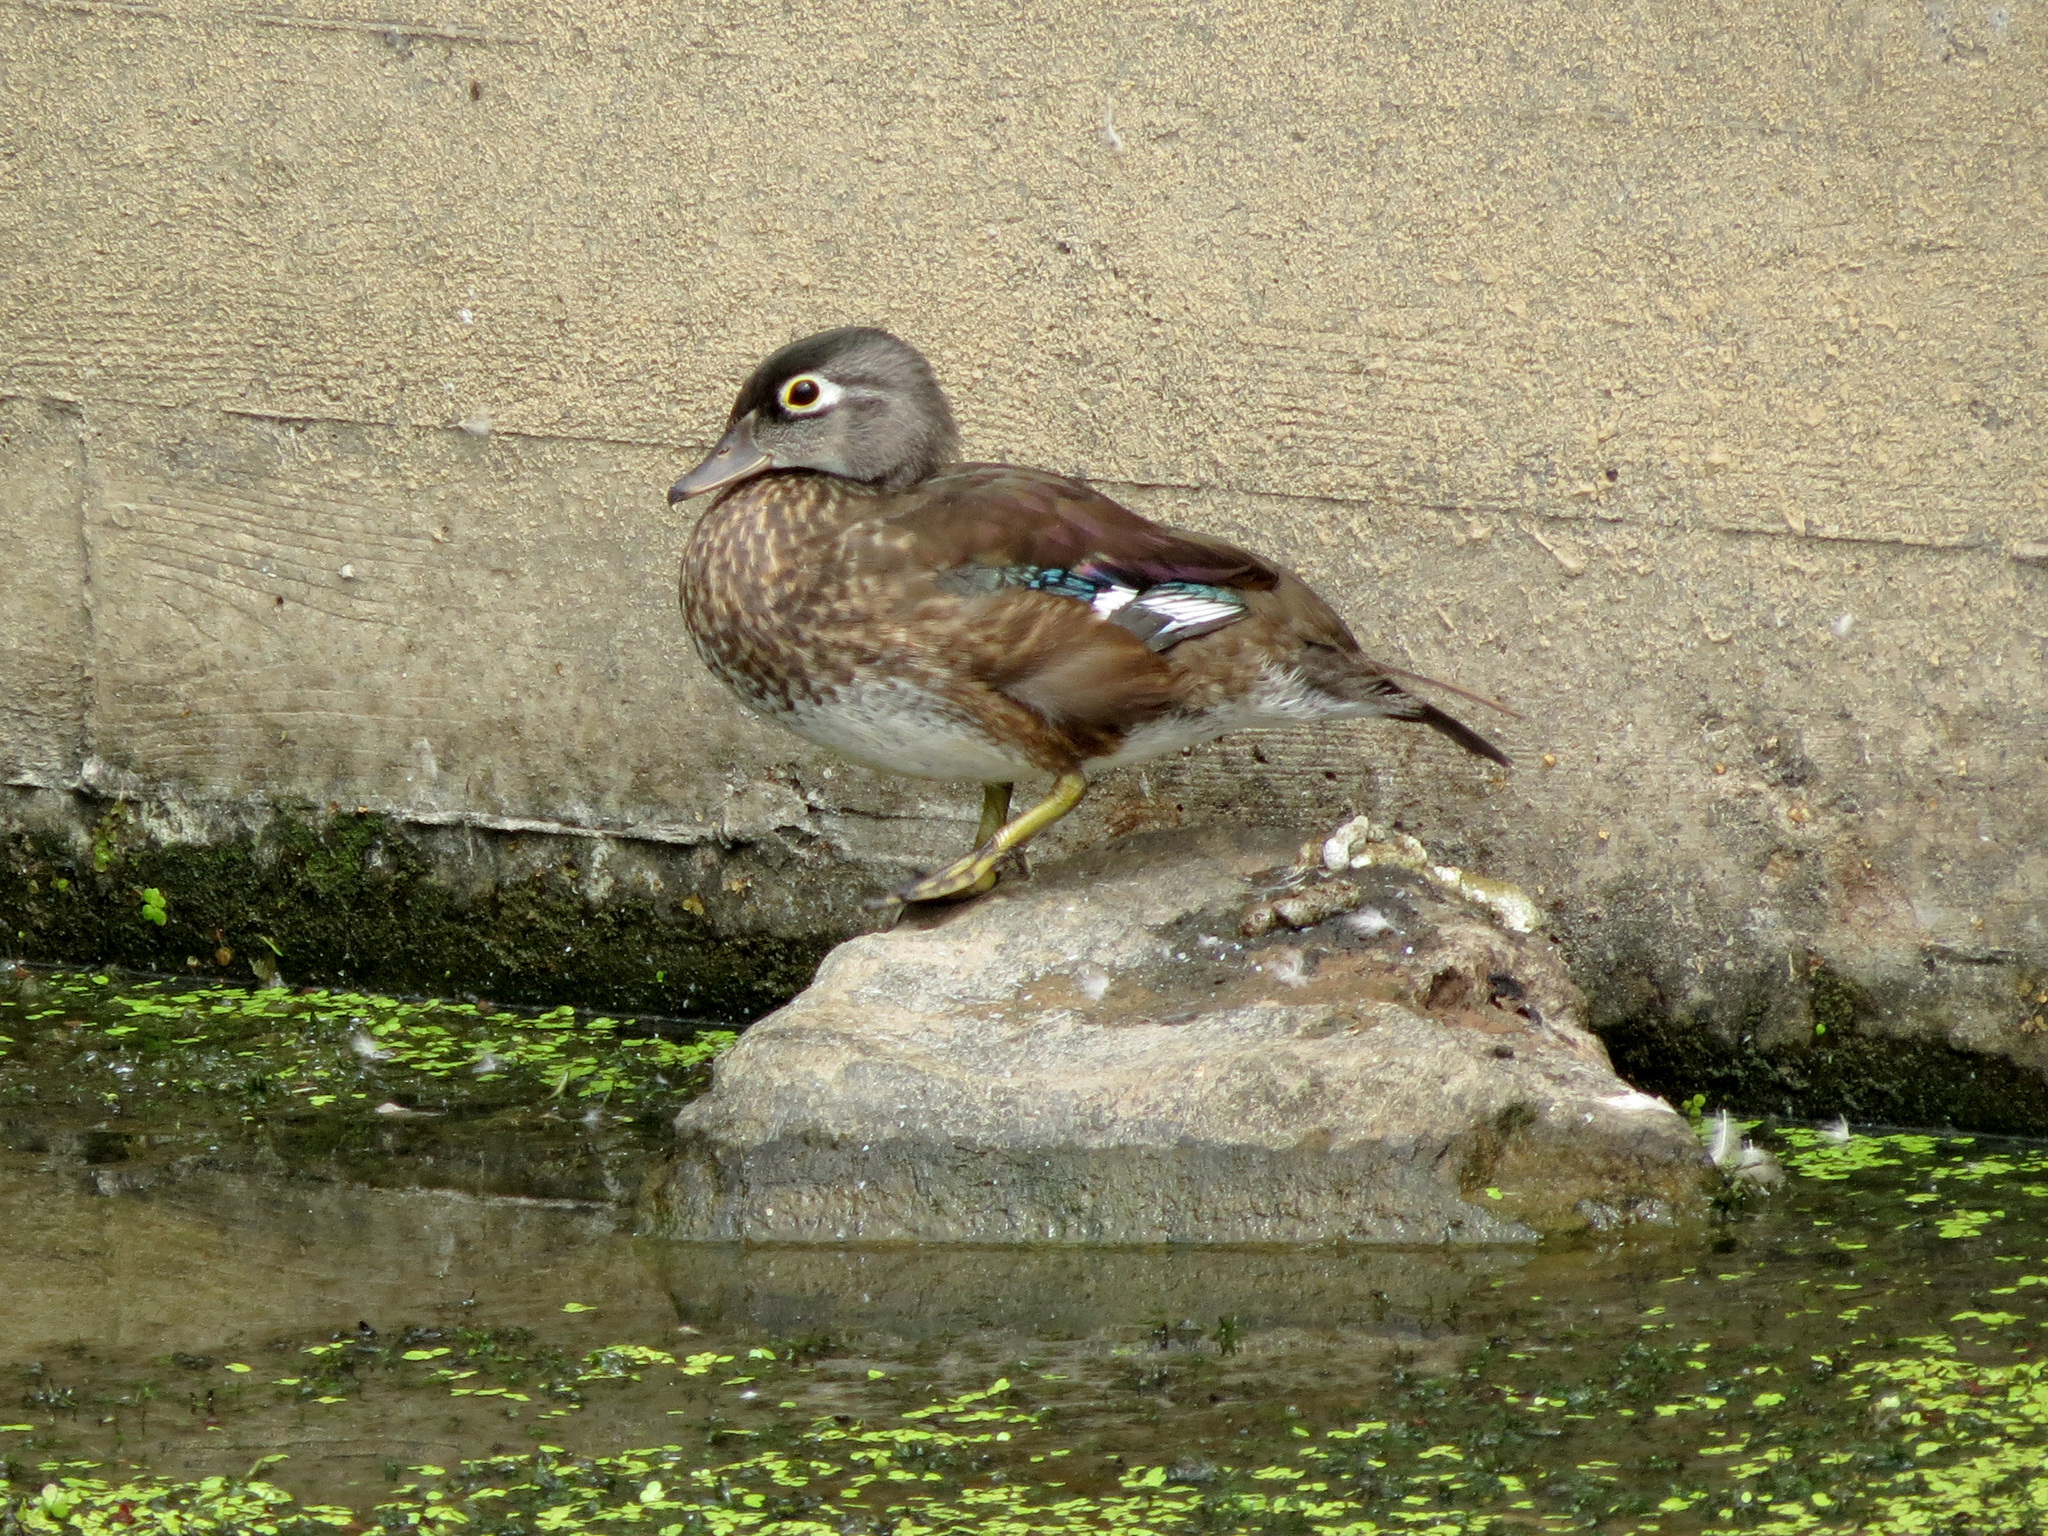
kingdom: Animalia
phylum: Chordata
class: Aves
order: Anseriformes
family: Anatidae
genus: Aix
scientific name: Aix sponsa
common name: Wood duck
